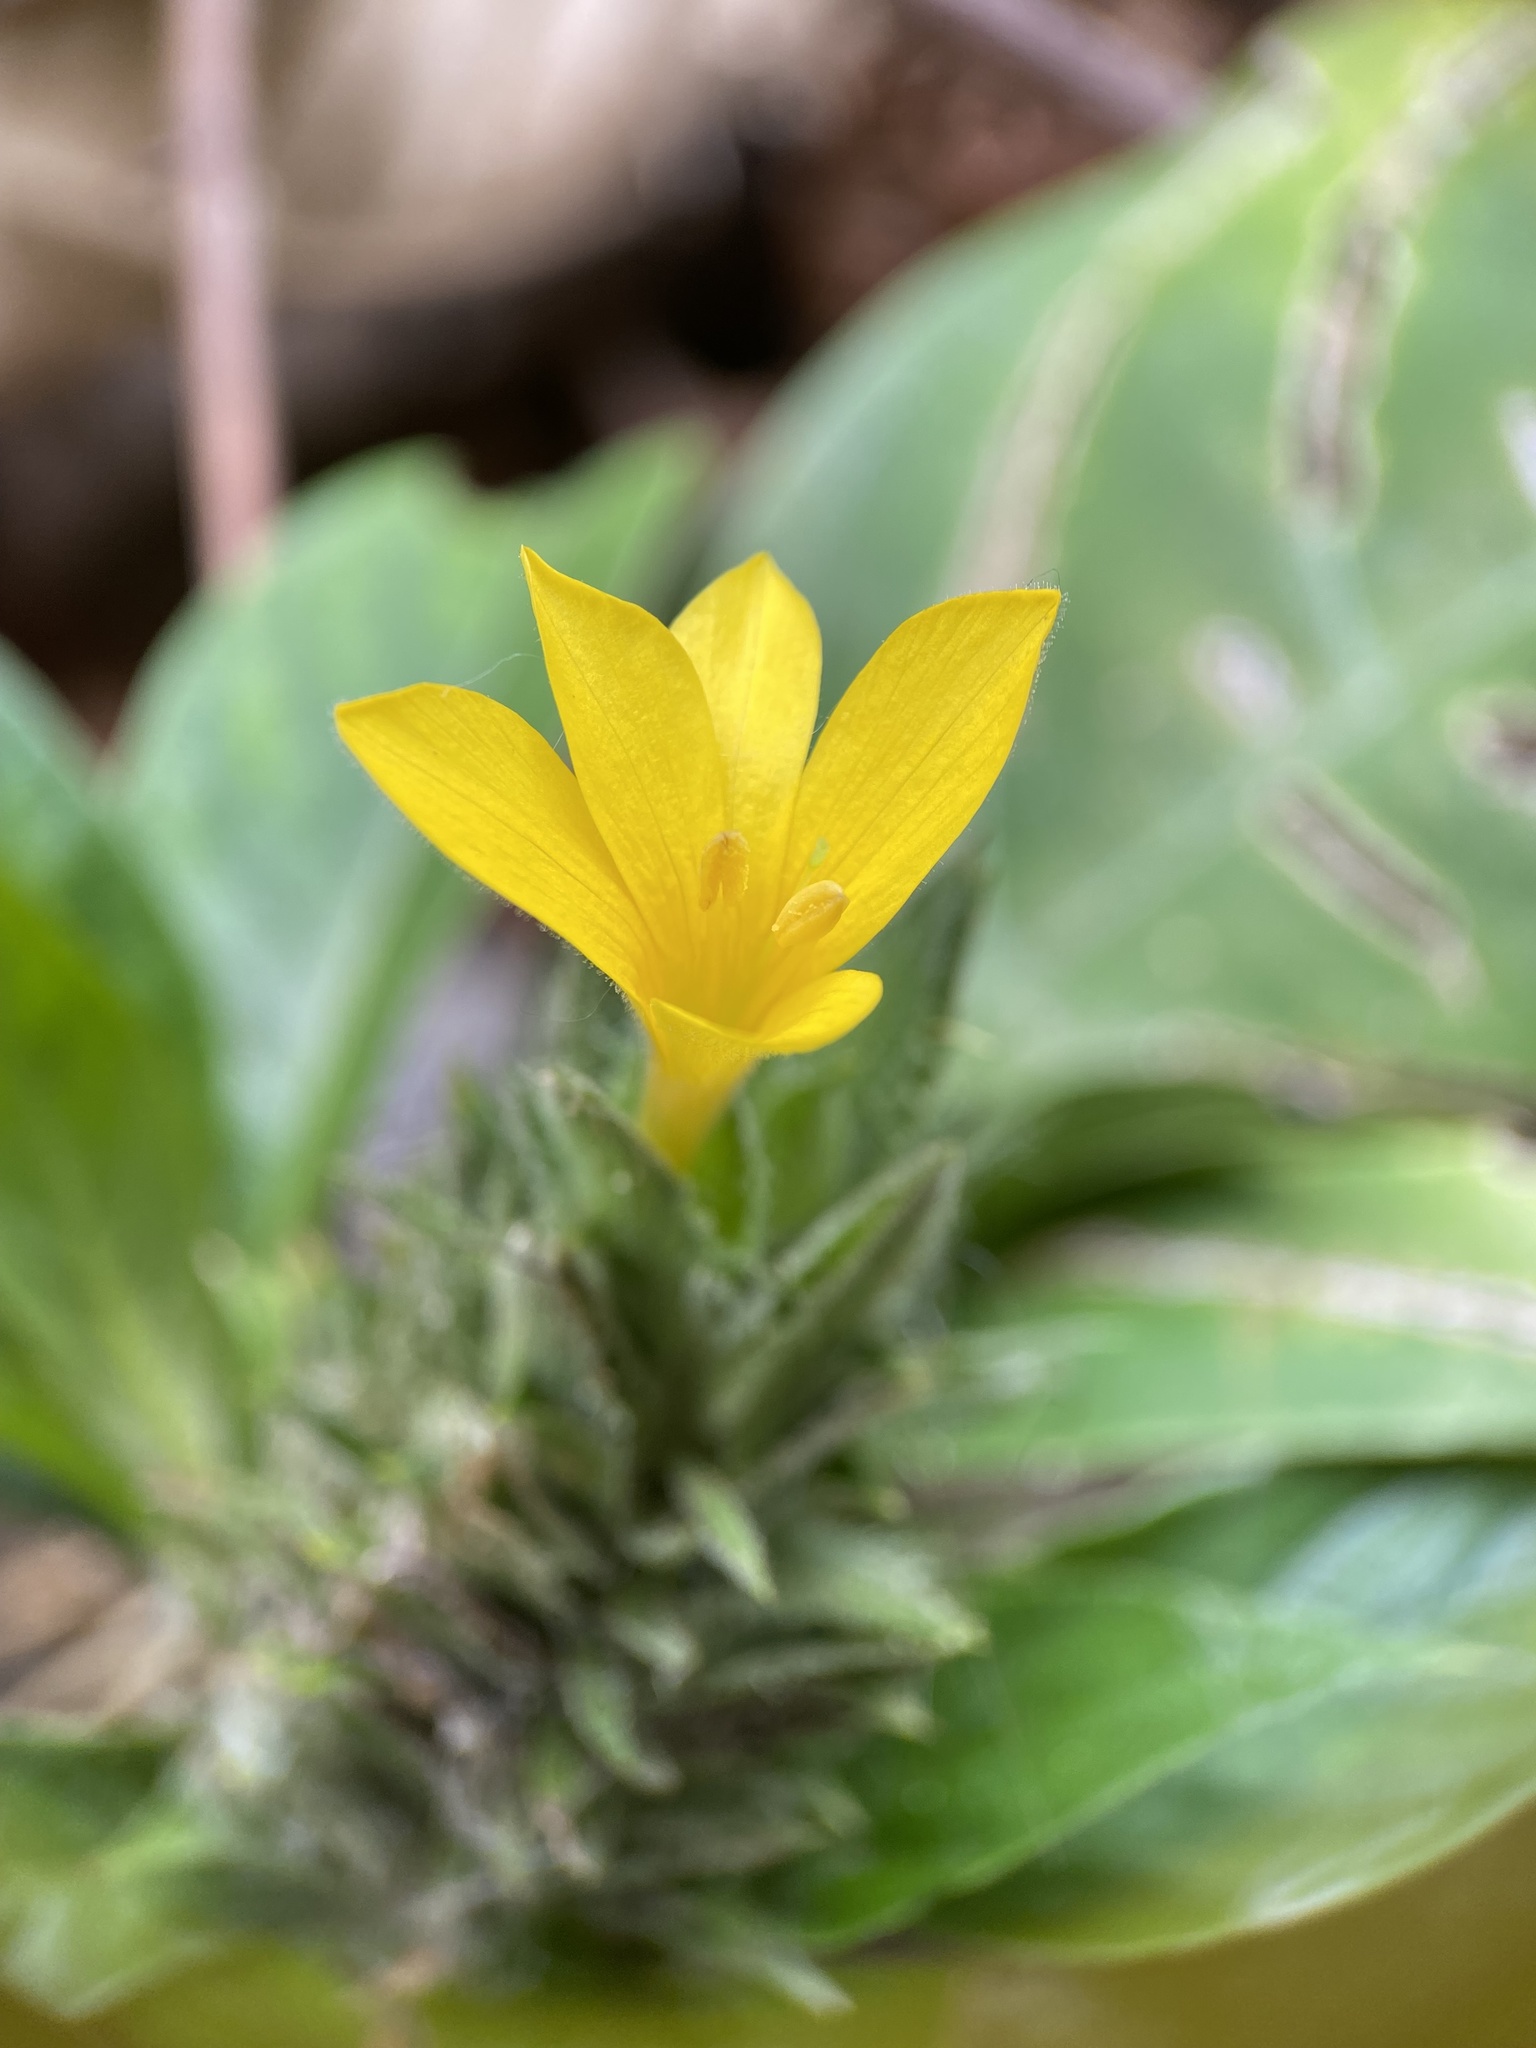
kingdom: Plantae
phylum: Tracheophyta
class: Magnoliopsida
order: Lamiales
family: Acanthaceae
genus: Barleria
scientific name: Barleria oenotheroides
